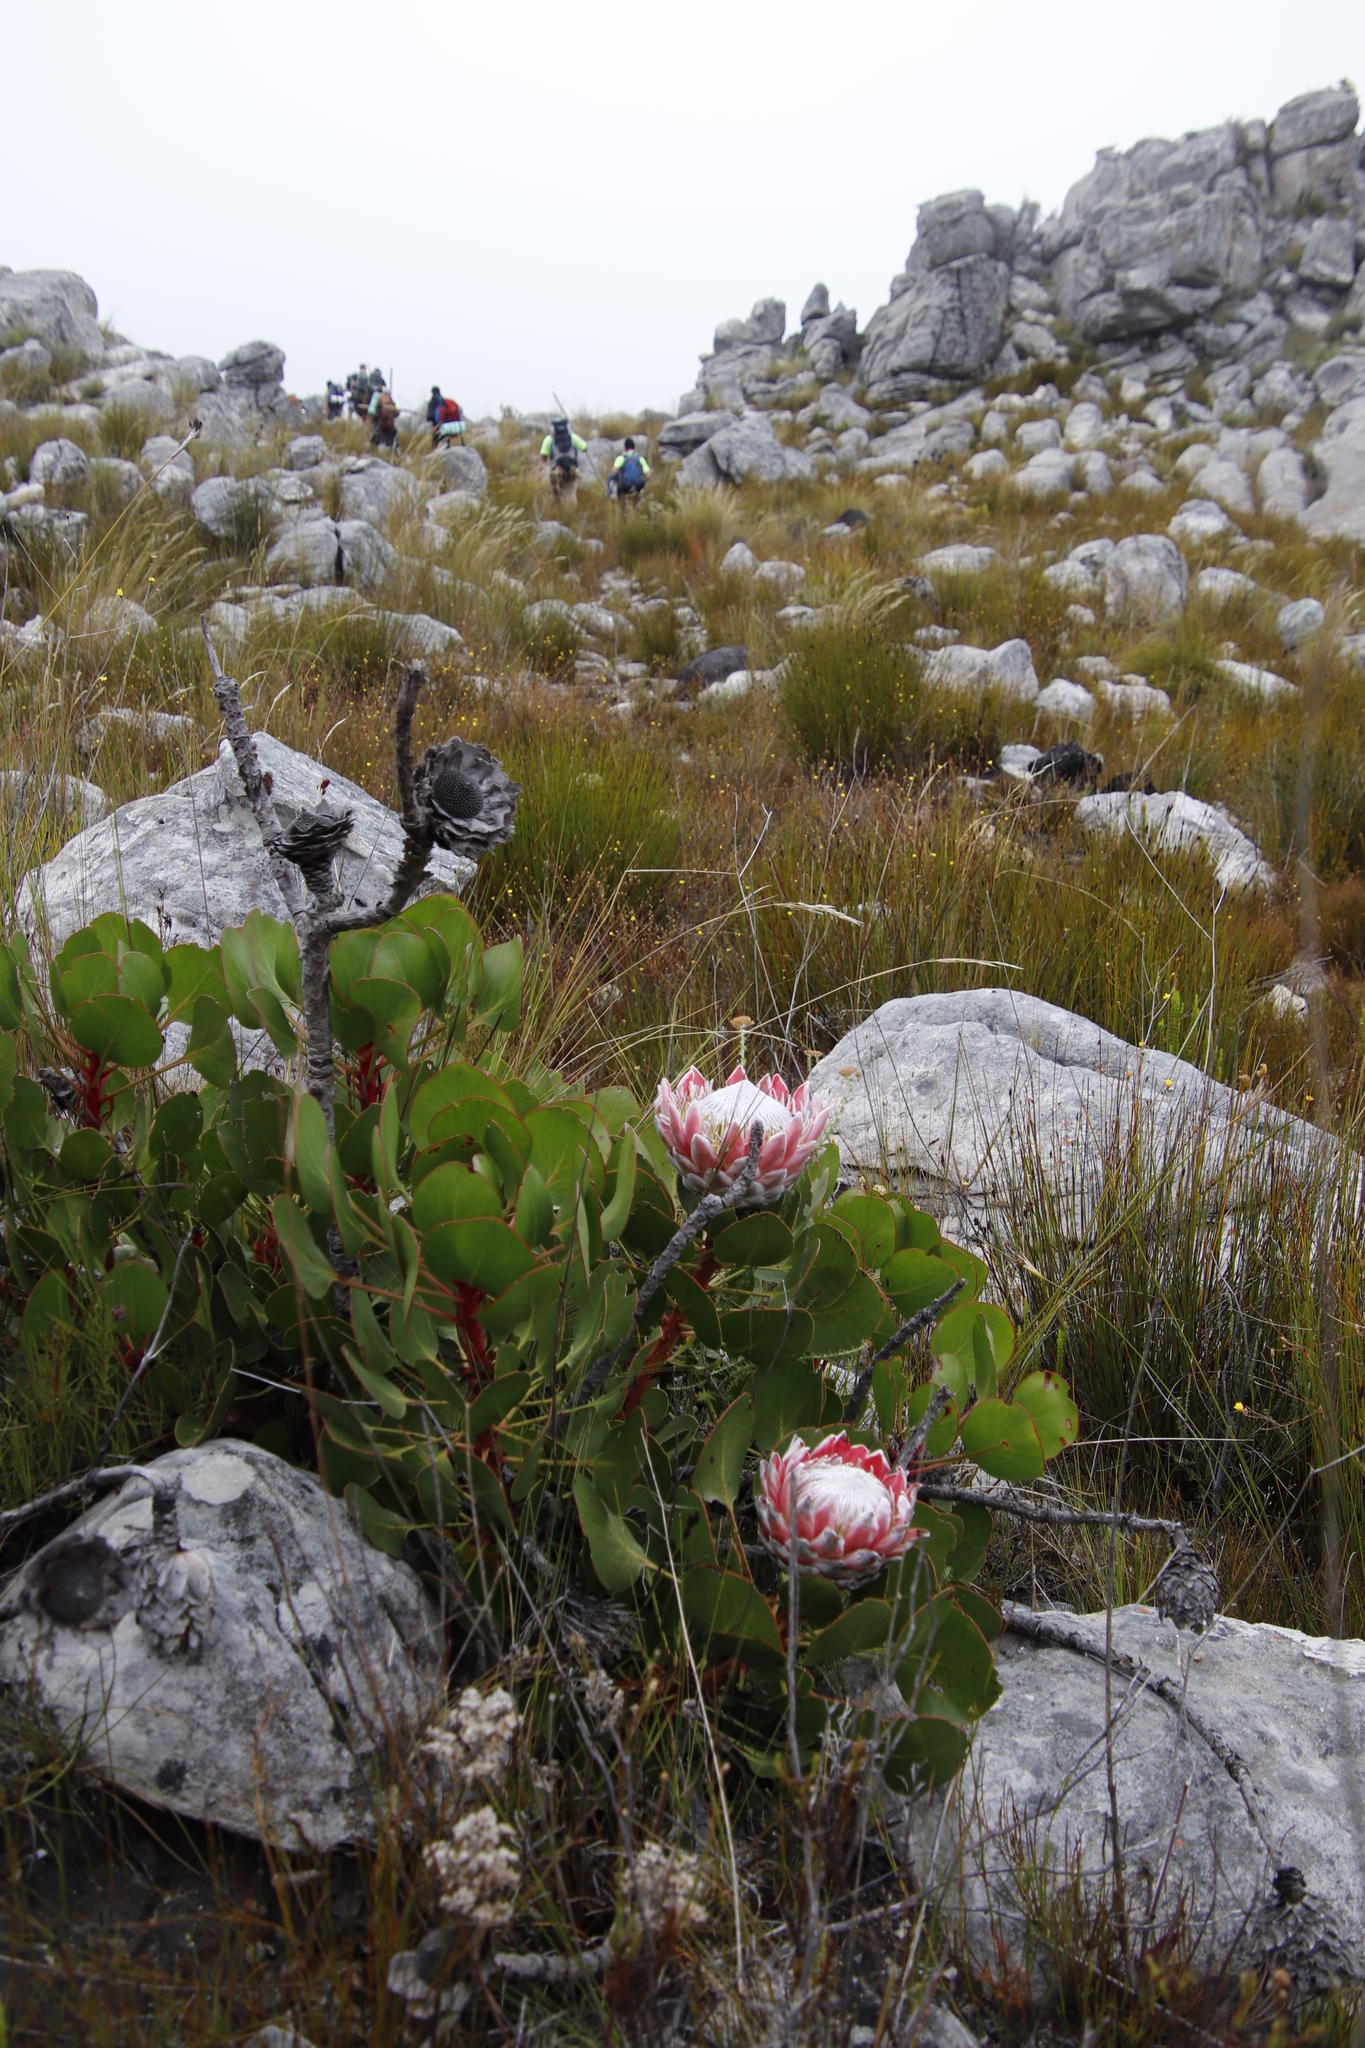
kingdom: Plantae
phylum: Tracheophyta
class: Magnoliopsida
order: Proteales
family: Proteaceae
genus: Protea
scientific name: Protea cynaroides
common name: King protea
